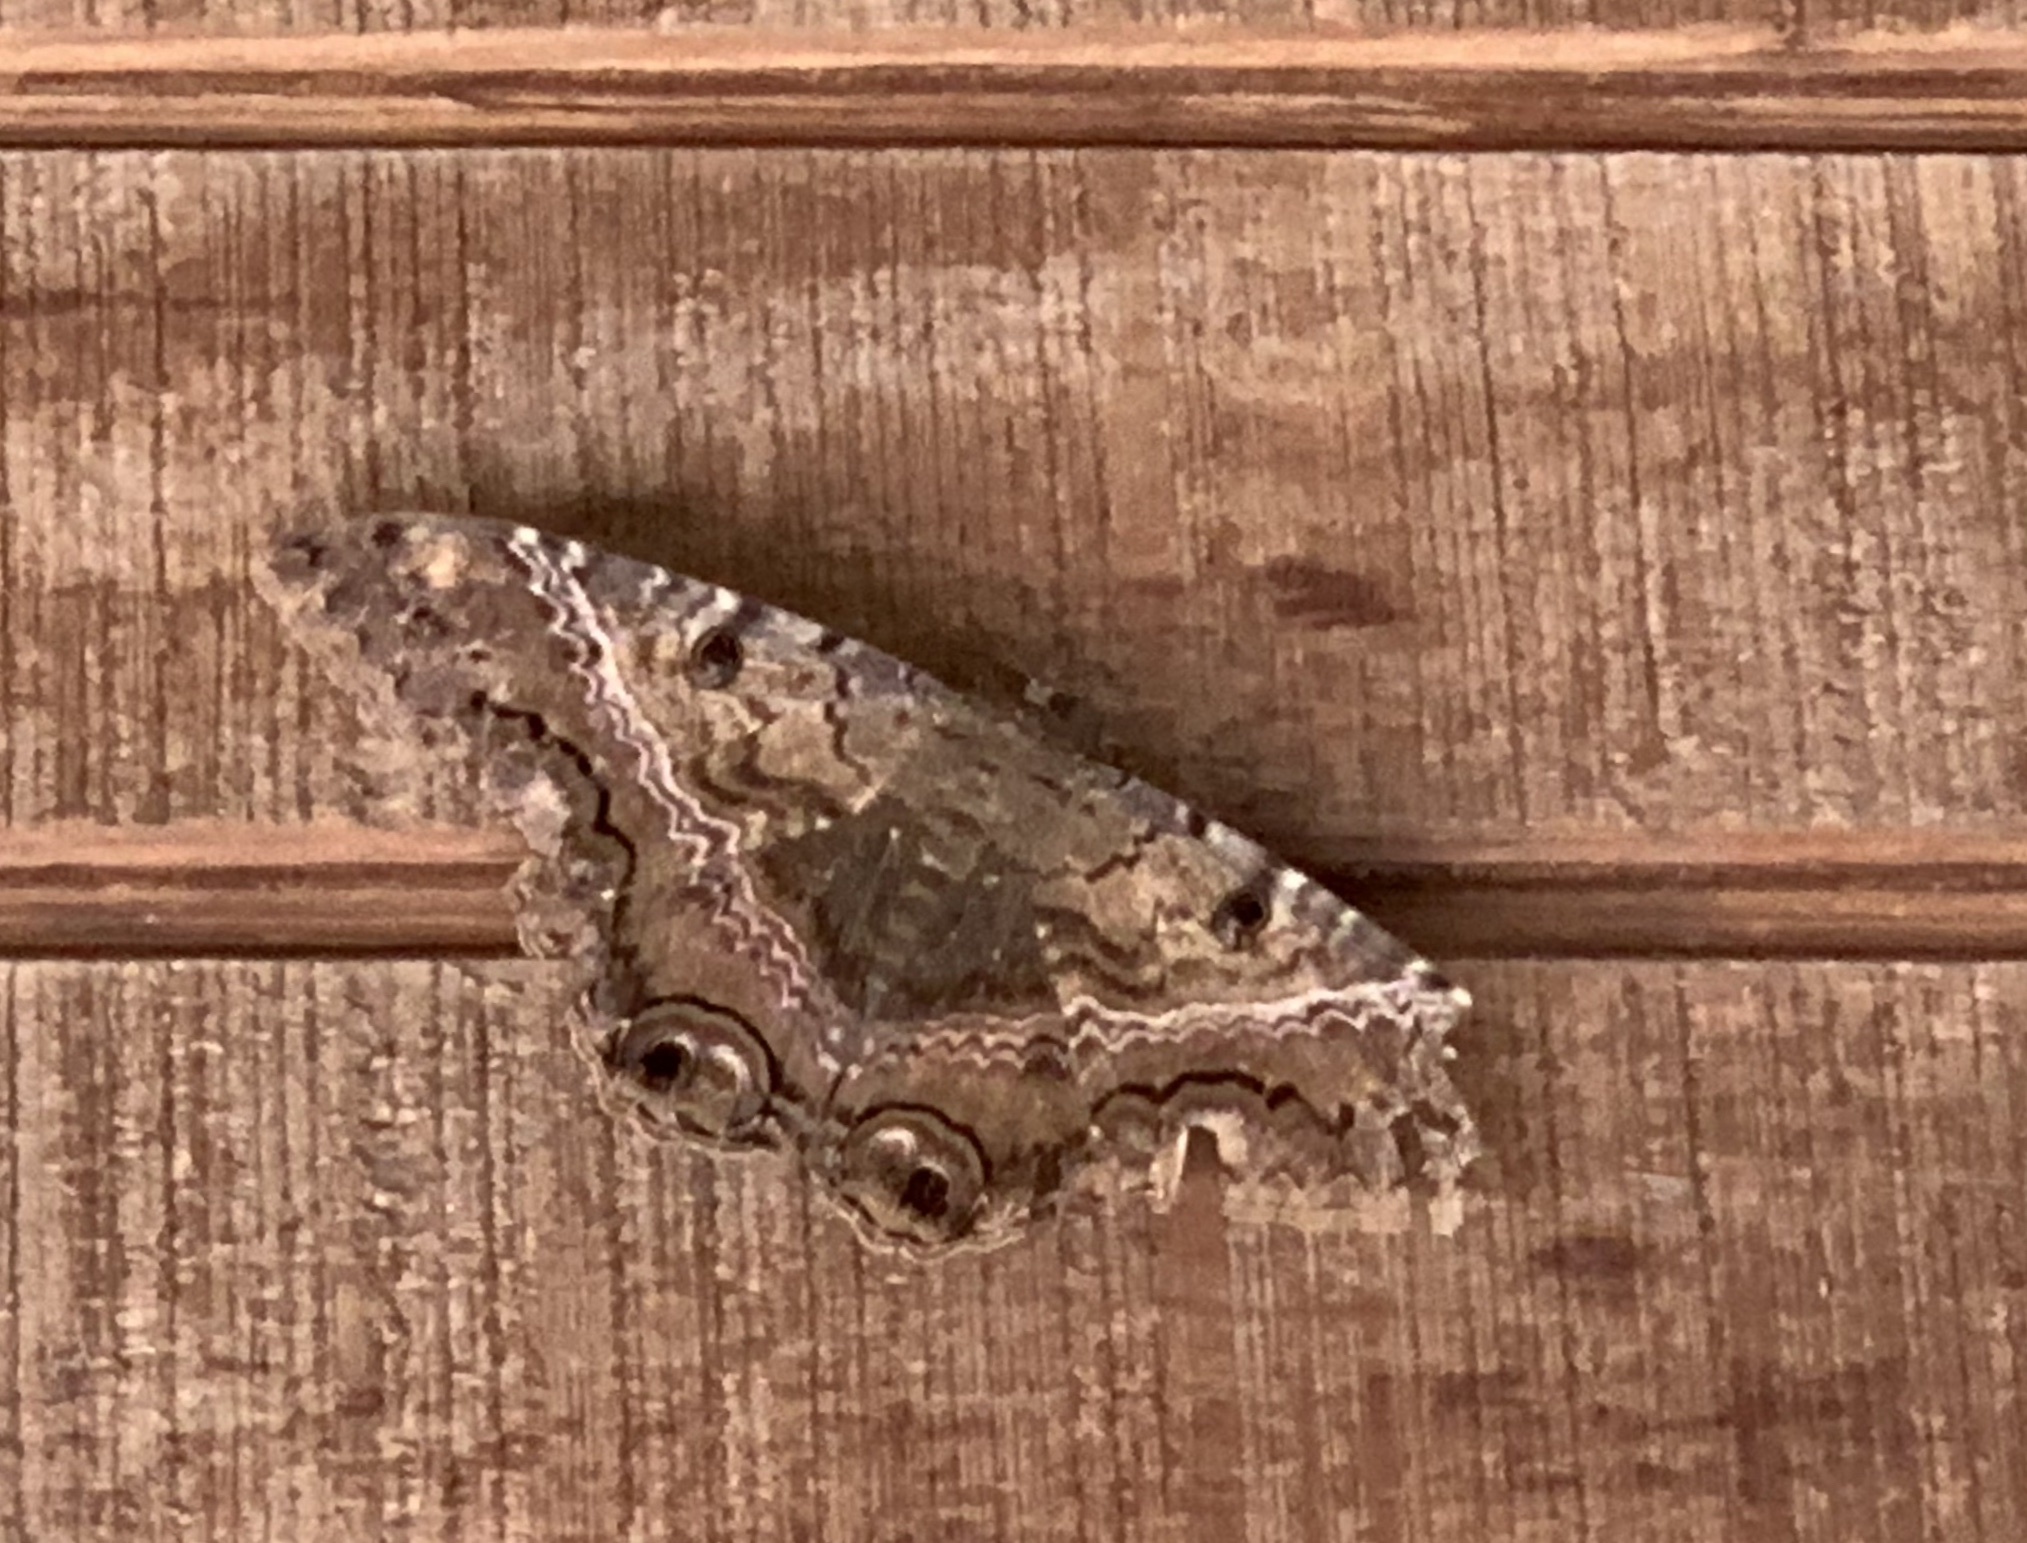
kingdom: Animalia
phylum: Arthropoda
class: Insecta
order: Lepidoptera
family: Erebidae
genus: Ascalapha
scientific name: Ascalapha odorata
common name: Black witch
